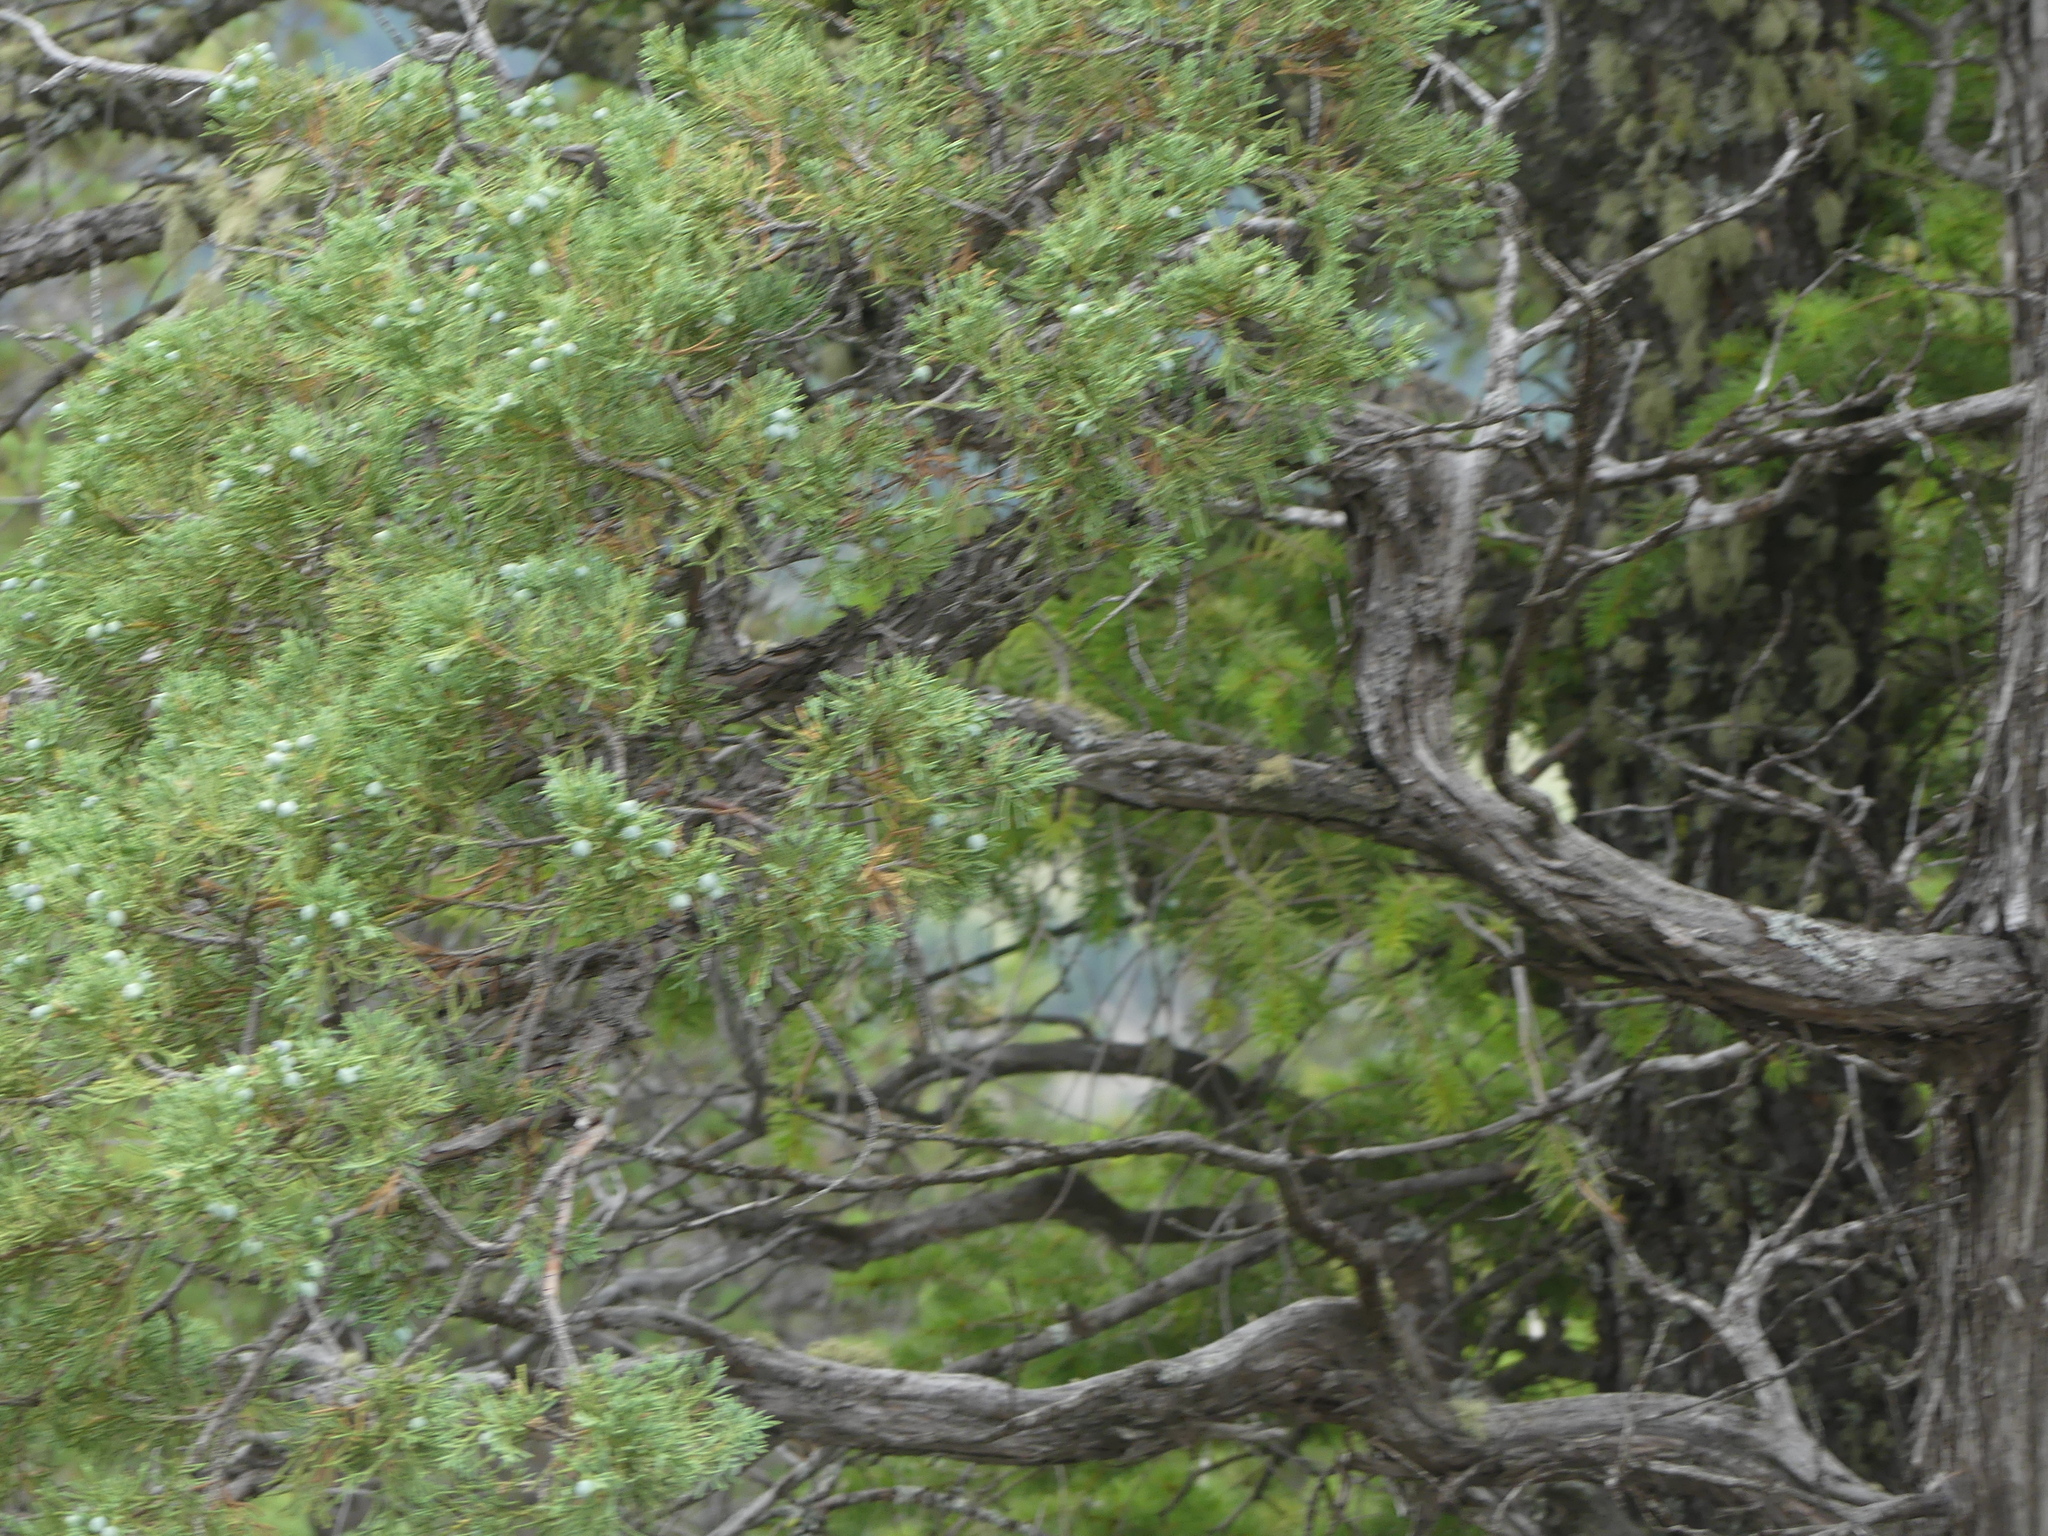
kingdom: Plantae
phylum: Tracheophyta
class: Pinopsida
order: Pinales
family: Cupressaceae
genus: Juniperus
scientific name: Juniperus scopulorum
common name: Rocky mountain juniper
